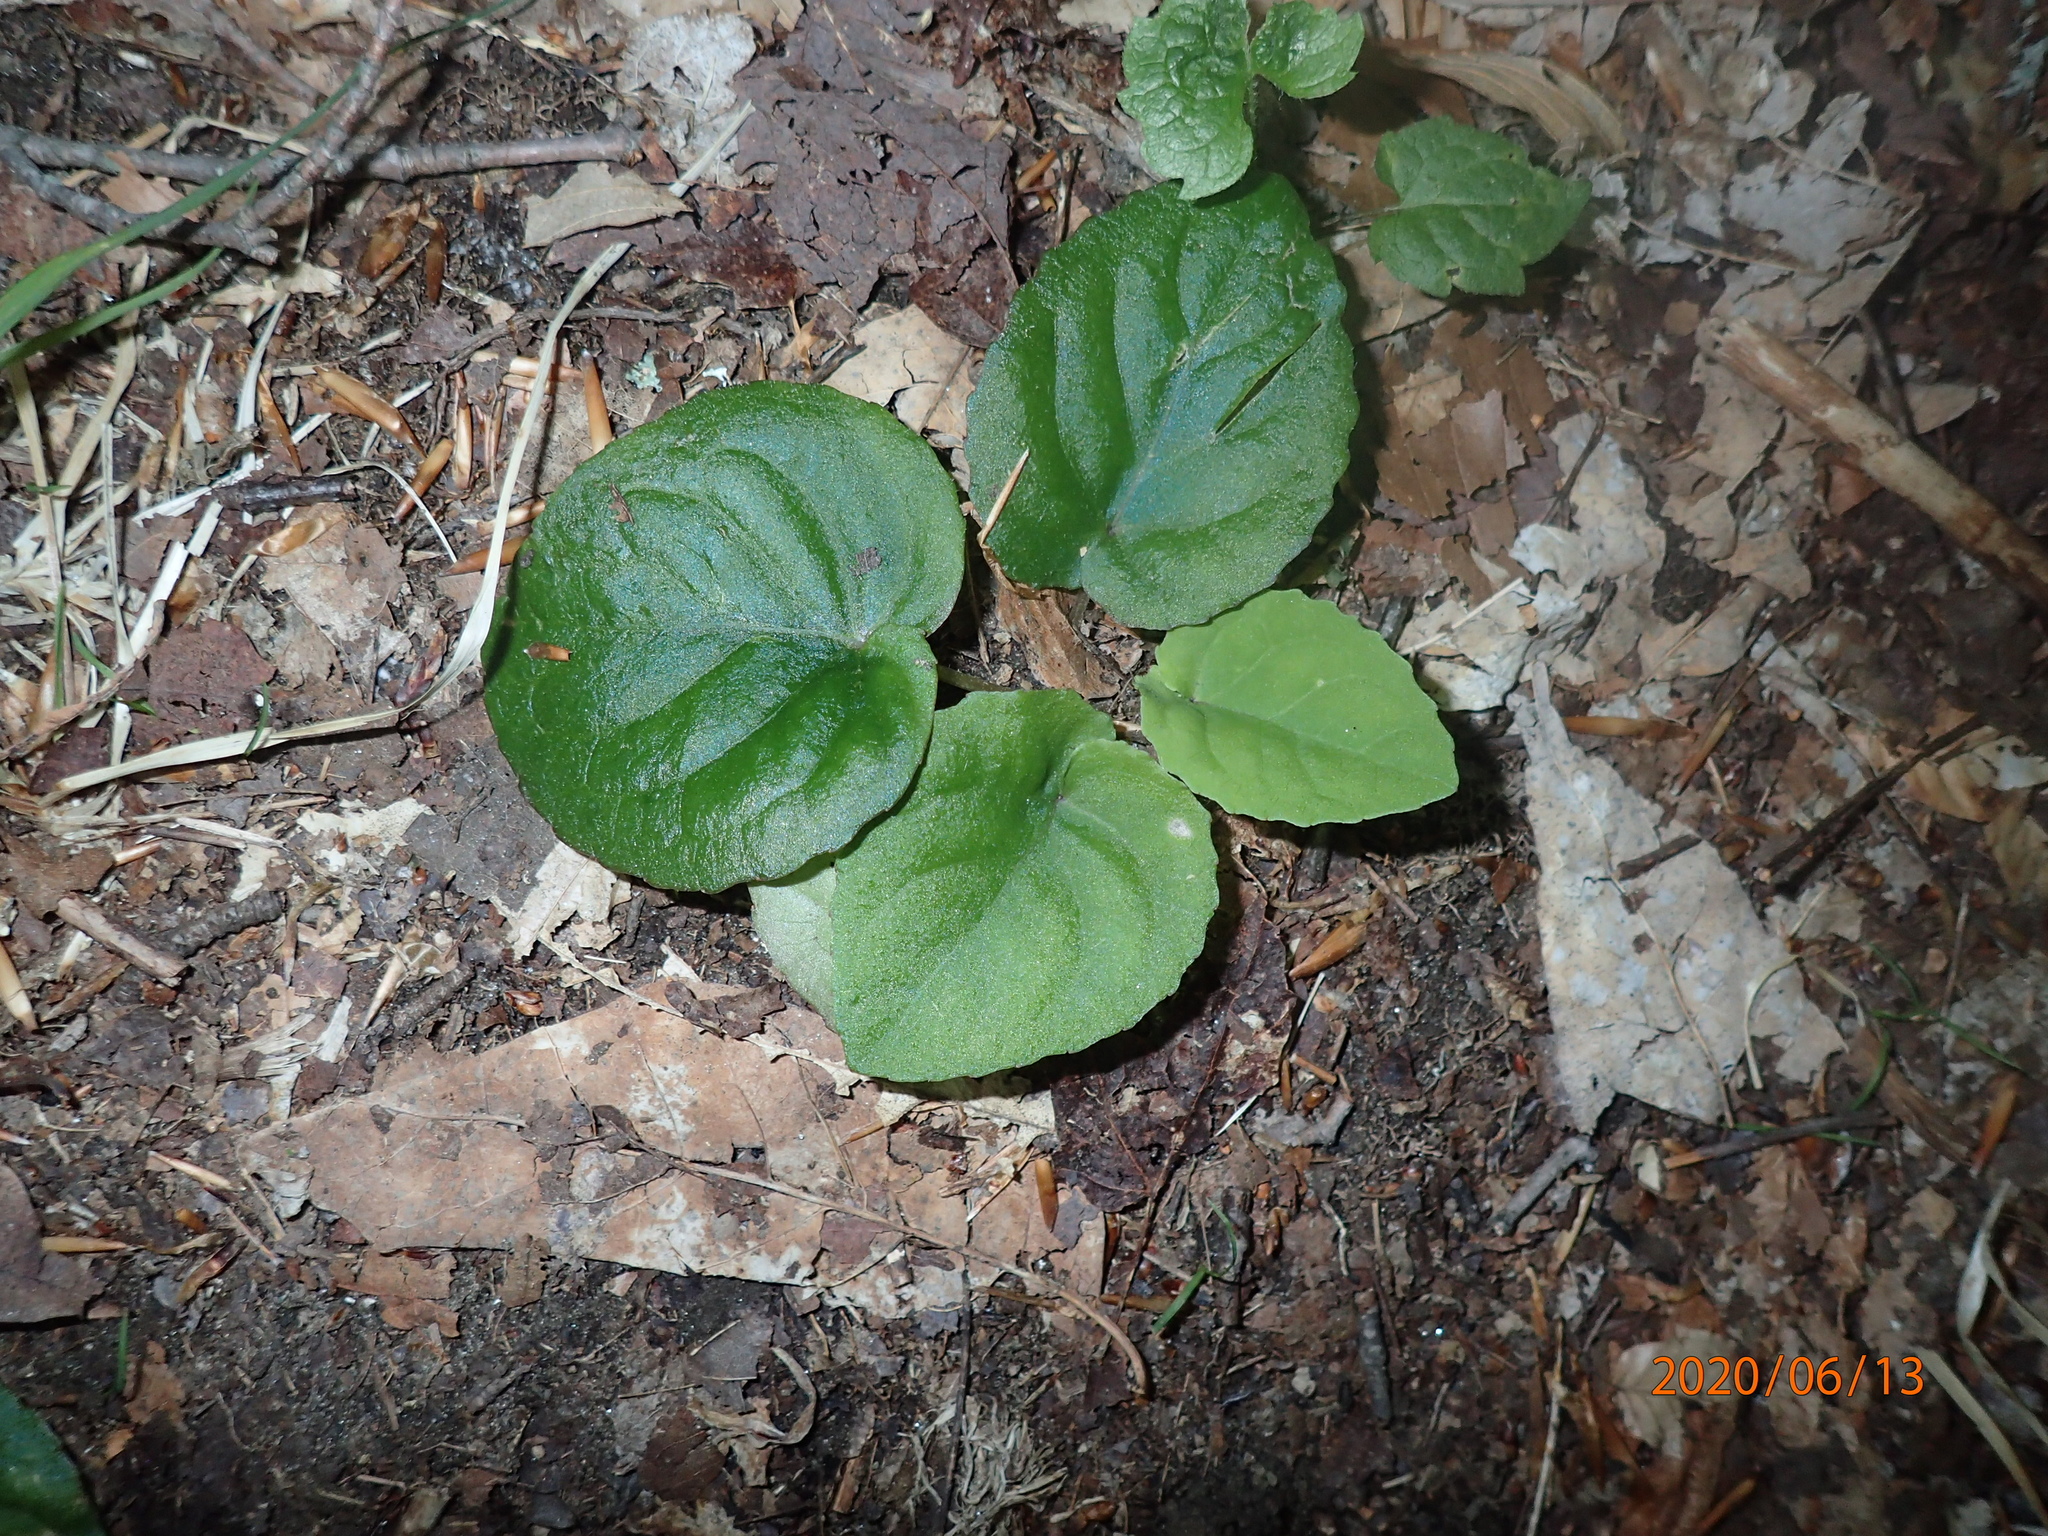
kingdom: Plantae
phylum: Tracheophyta
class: Magnoliopsida
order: Malpighiales
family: Violaceae
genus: Viola
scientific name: Viola rotundifolia
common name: Early yellow violet
